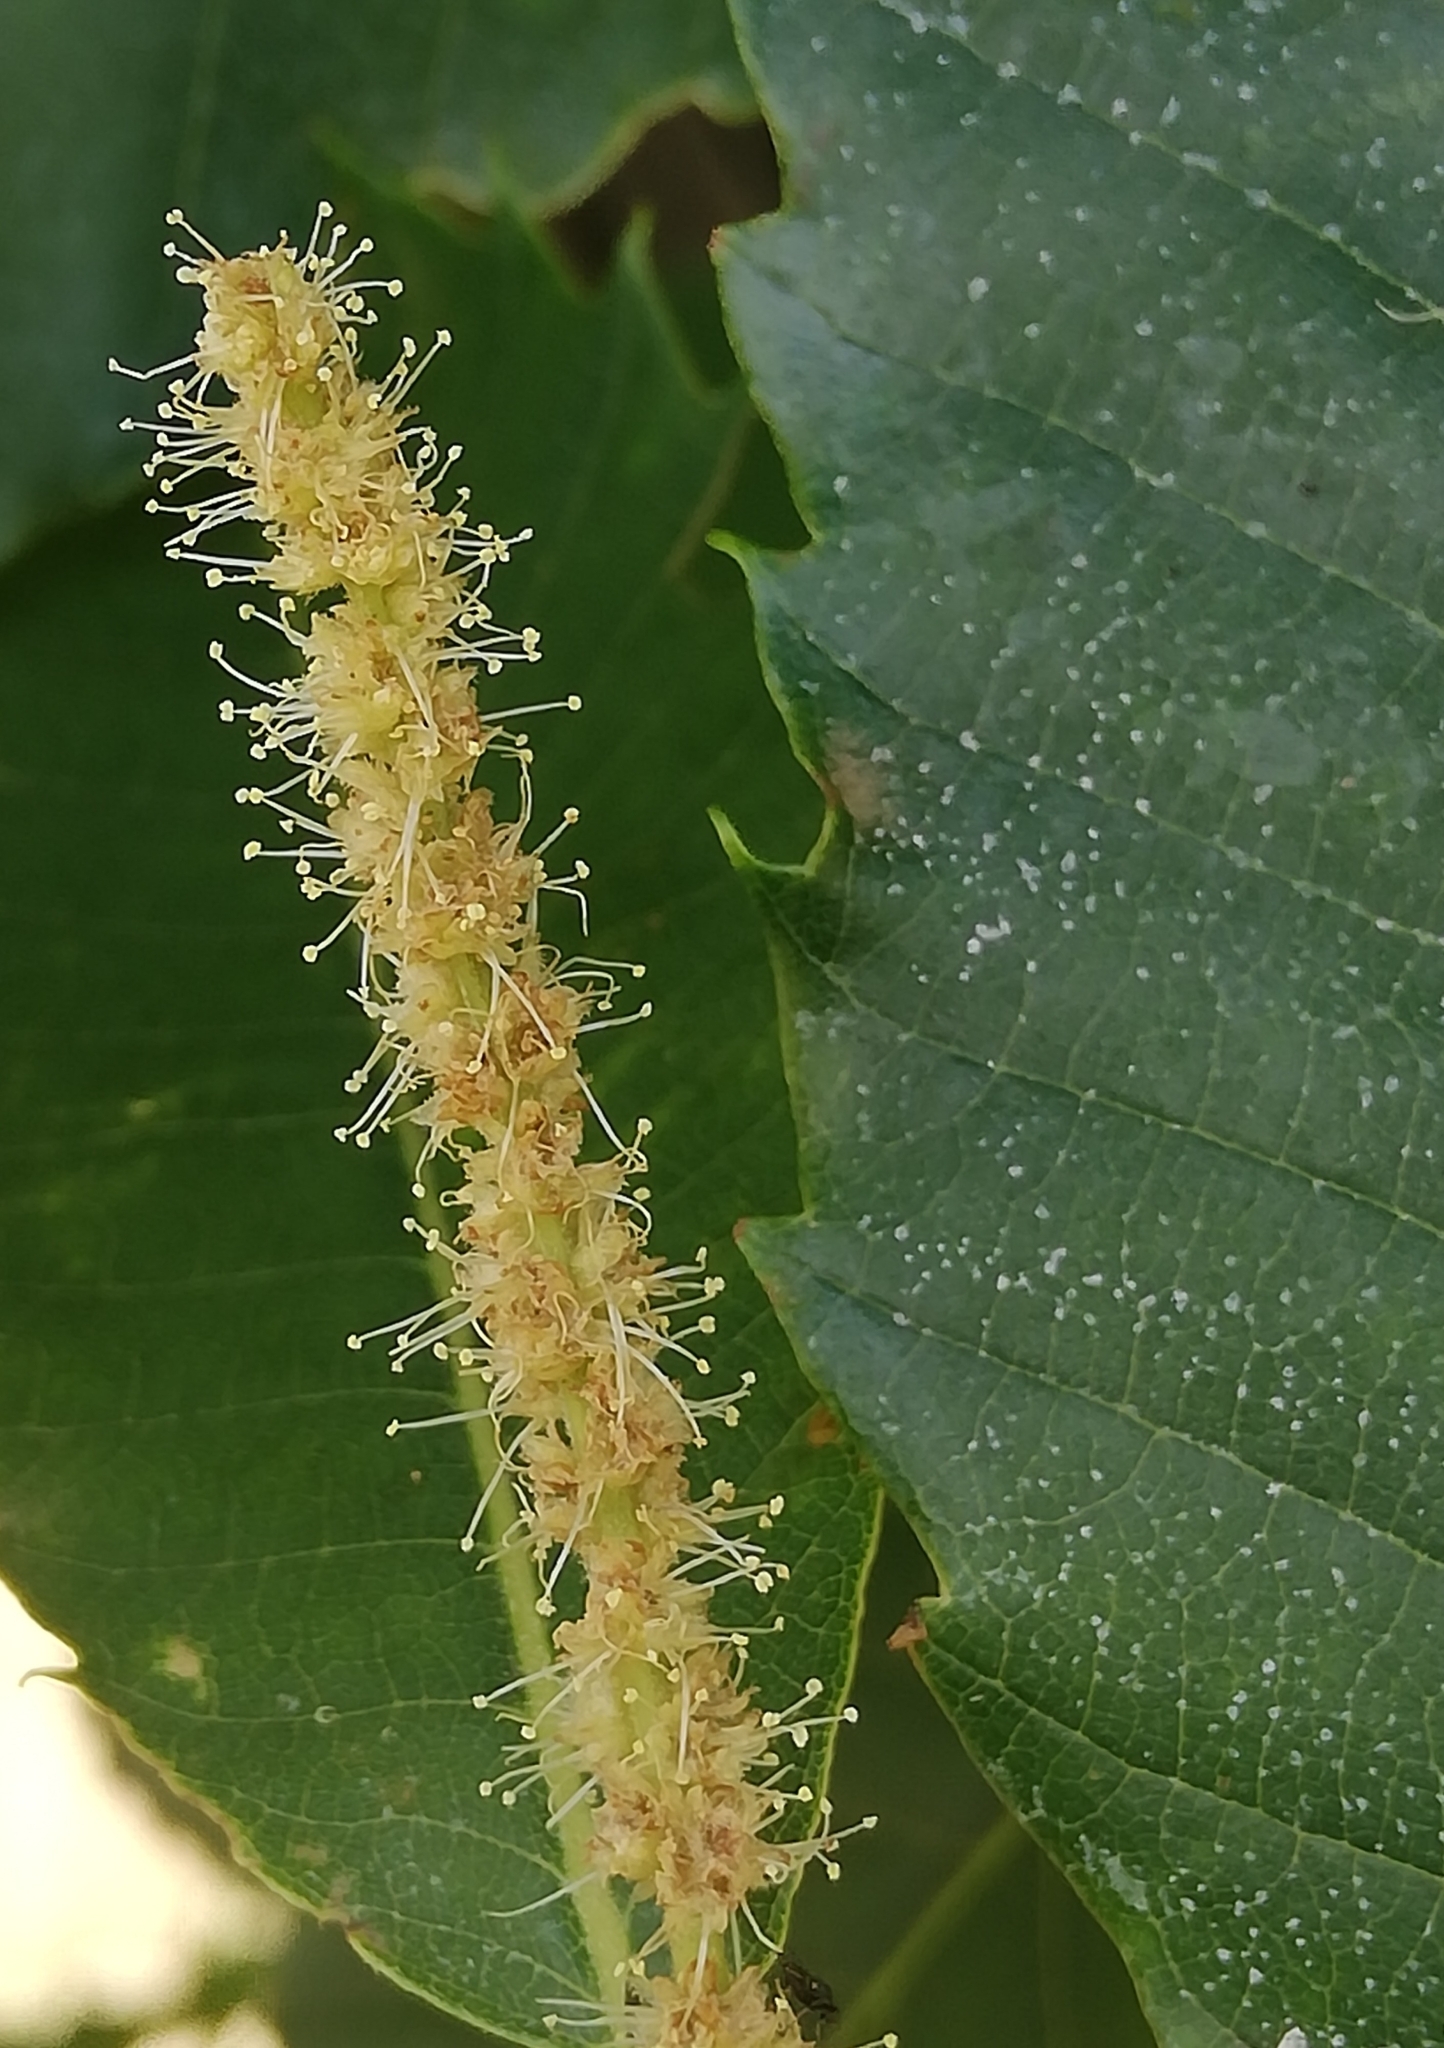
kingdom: Plantae
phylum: Tracheophyta
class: Magnoliopsida
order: Fagales
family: Fagaceae
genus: Castanea
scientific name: Castanea sativa
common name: Sweet chestnut
